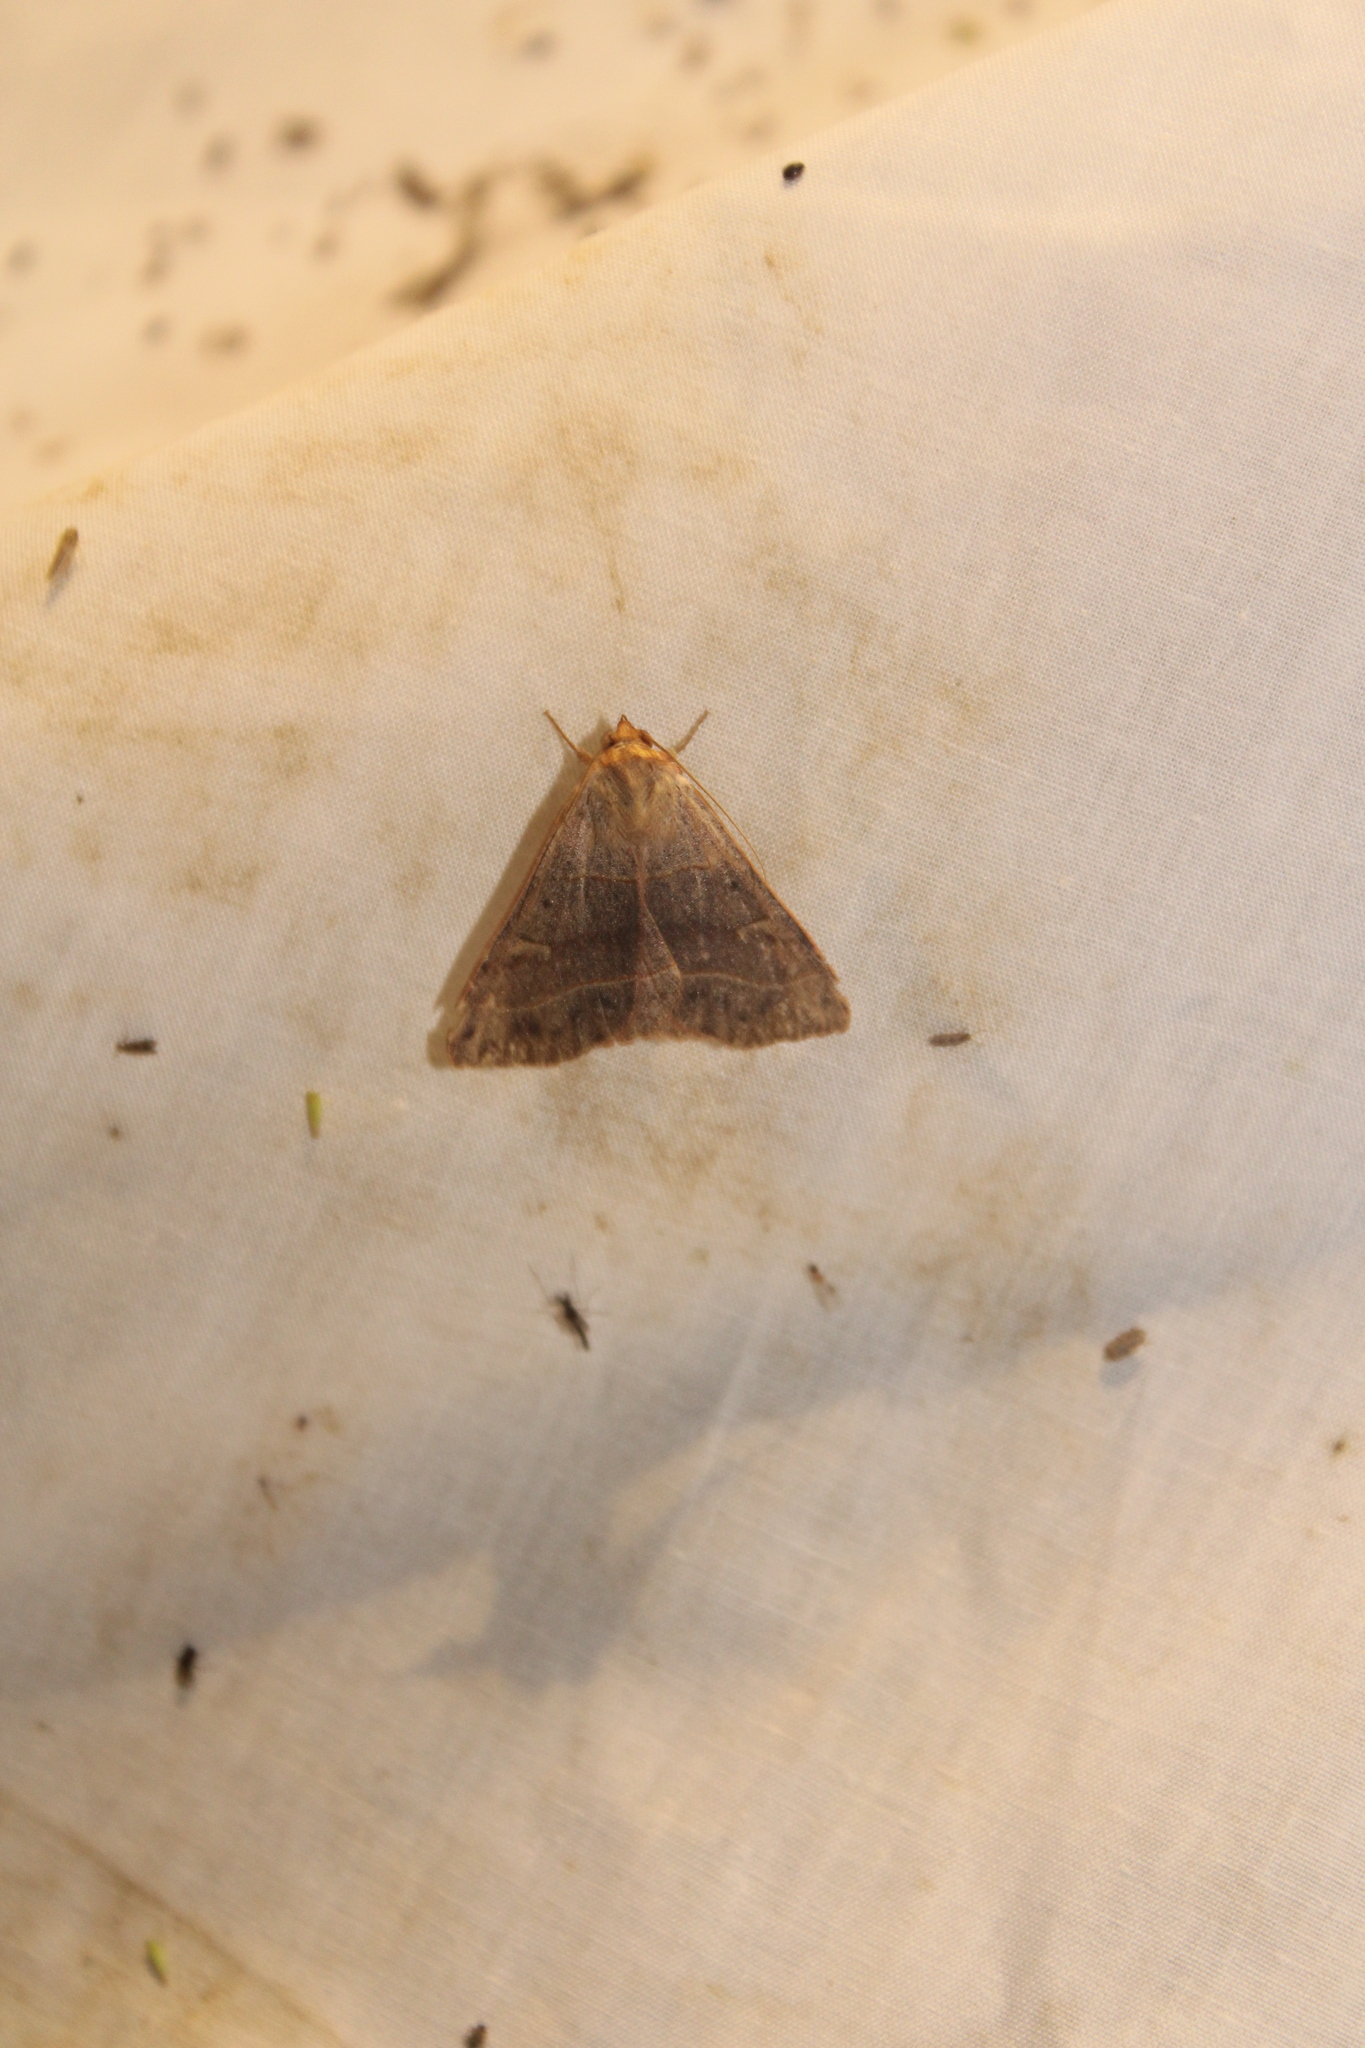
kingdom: Animalia
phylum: Arthropoda
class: Insecta
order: Lepidoptera
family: Erebidae
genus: Panopoda
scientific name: Panopoda rufimargo
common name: Red-lined panopoda moth
